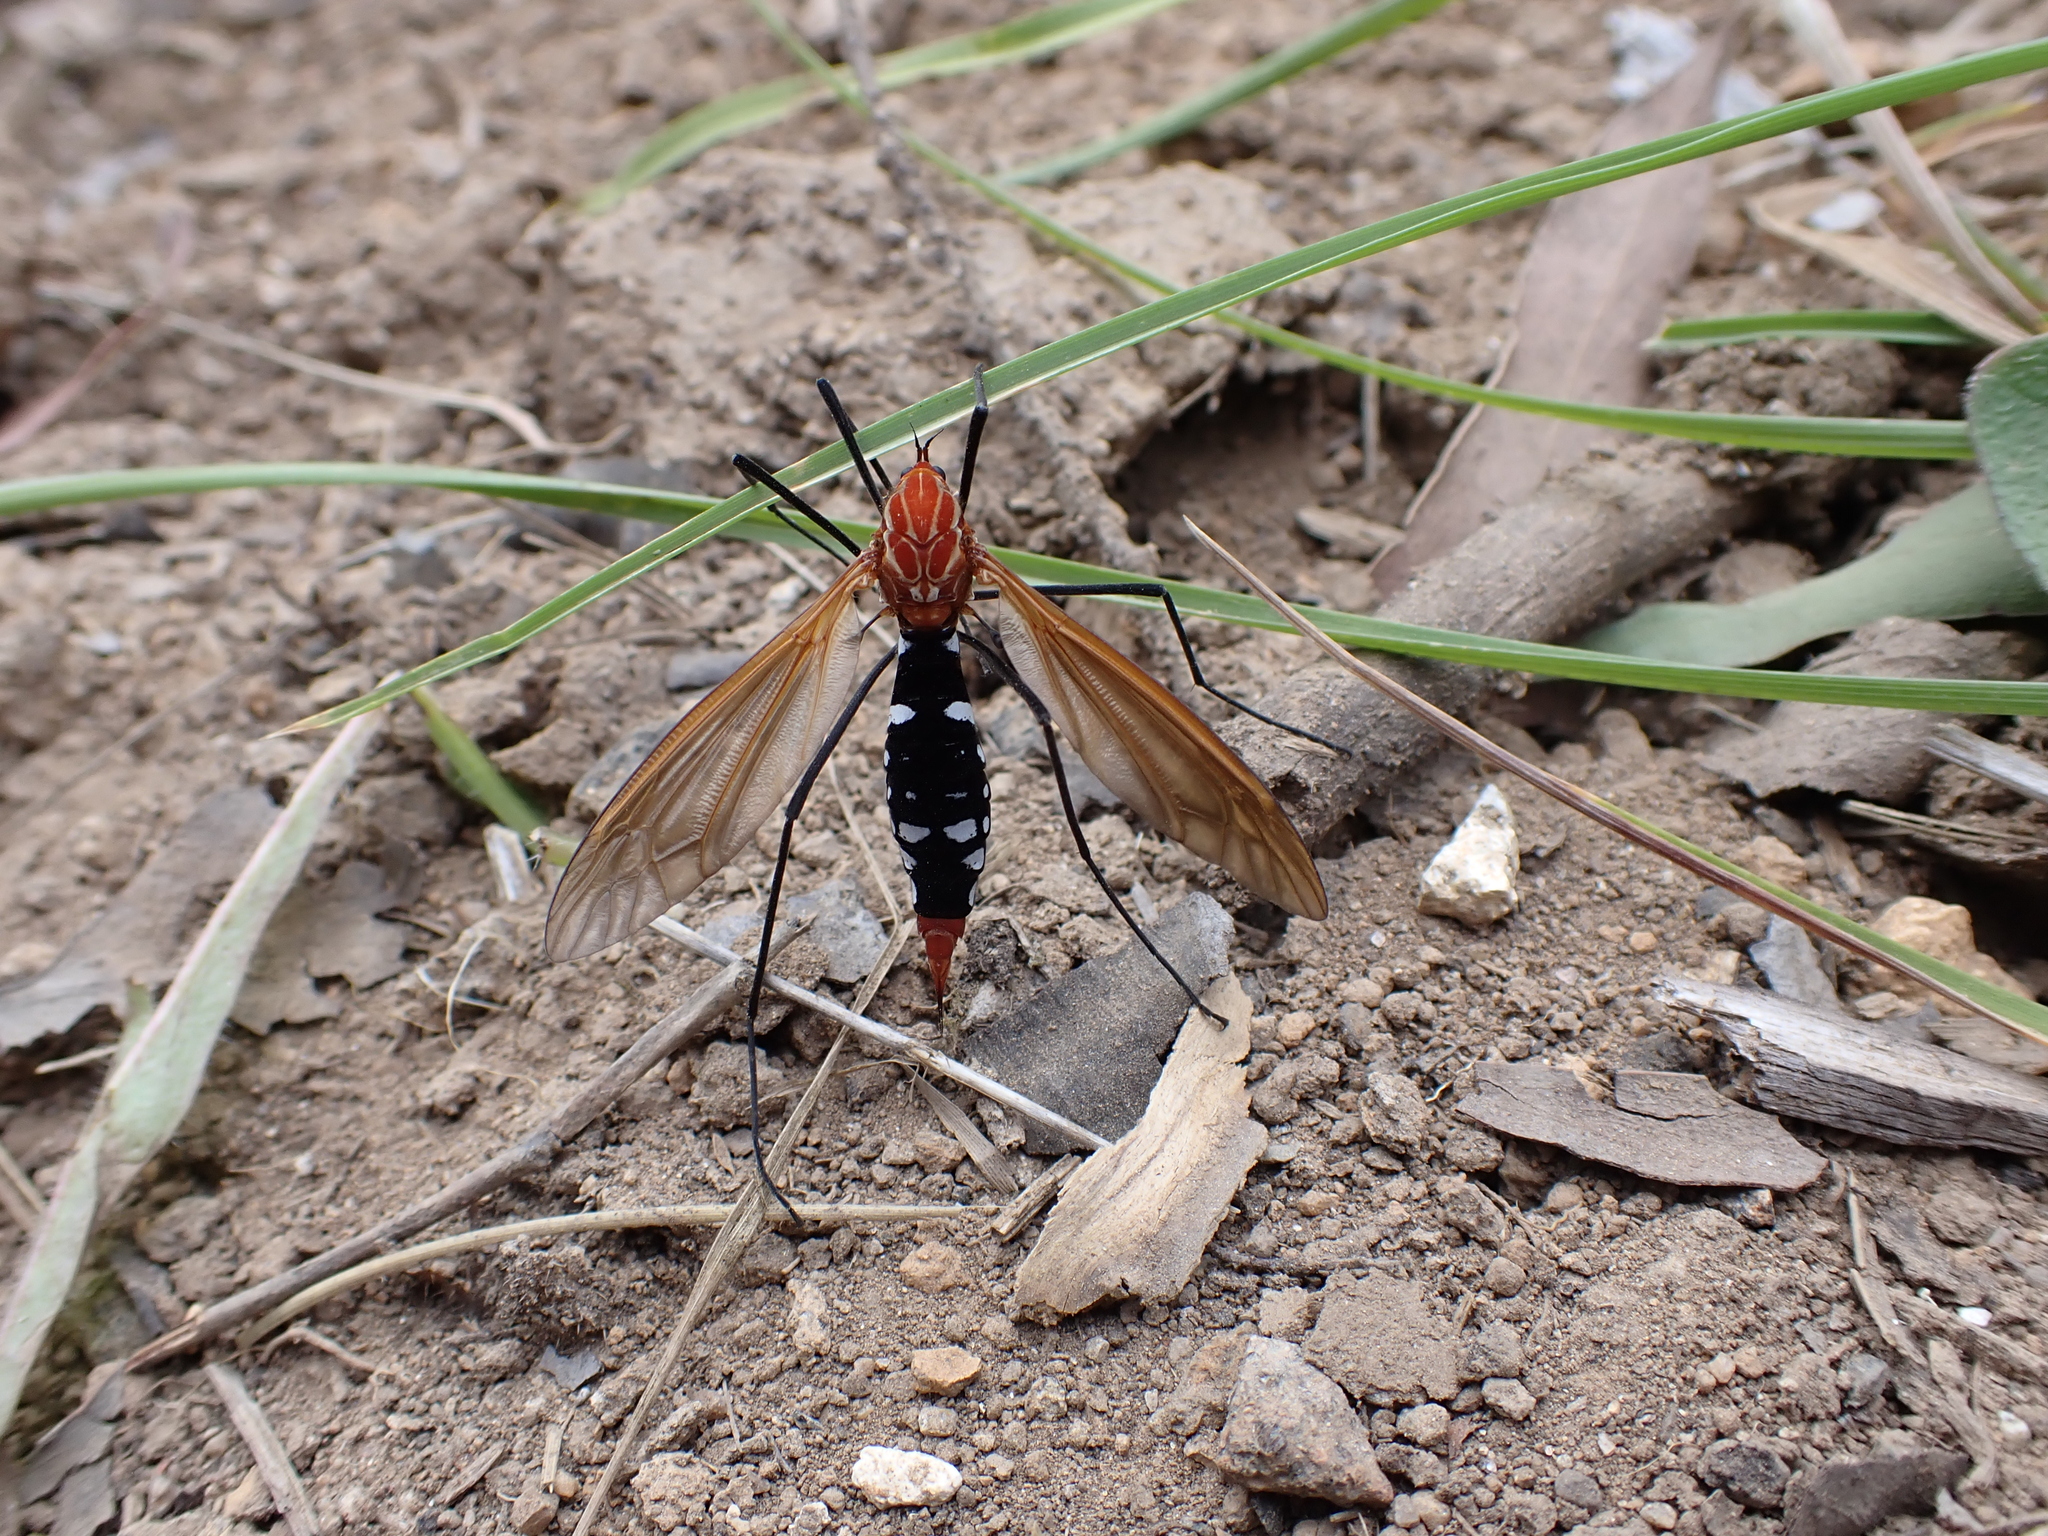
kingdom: Animalia
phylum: Arthropoda
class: Insecta
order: Diptera
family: Tipulidae
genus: Clytocosmus
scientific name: Clytocosmus edwardsi
